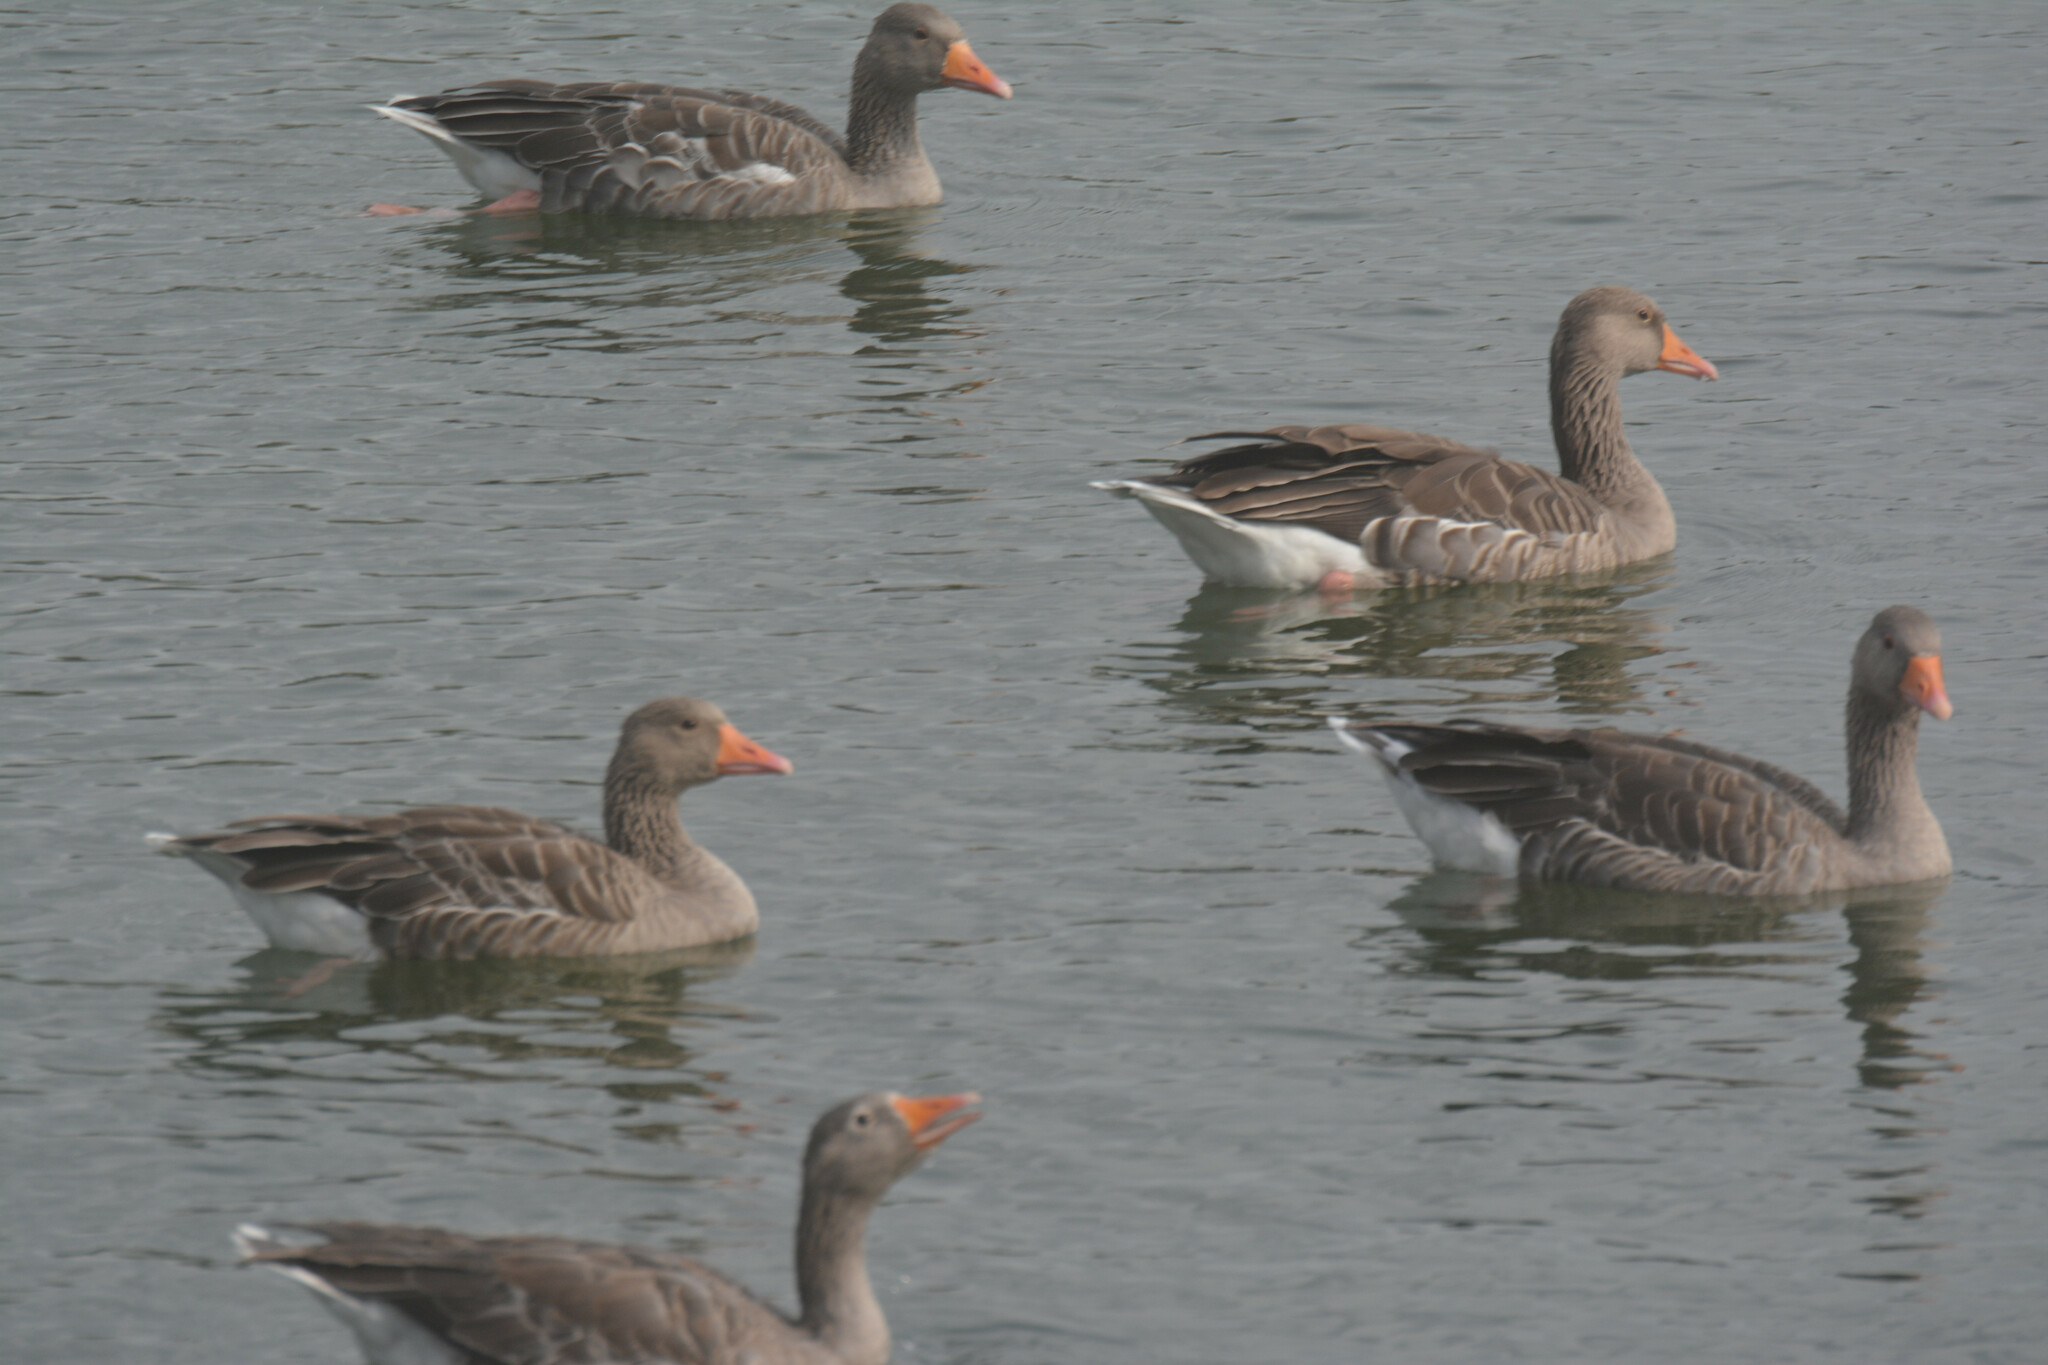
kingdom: Animalia
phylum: Chordata
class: Aves
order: Anseriformes
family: Anatidae
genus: Anser
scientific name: Anser anser
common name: Greylag goose
